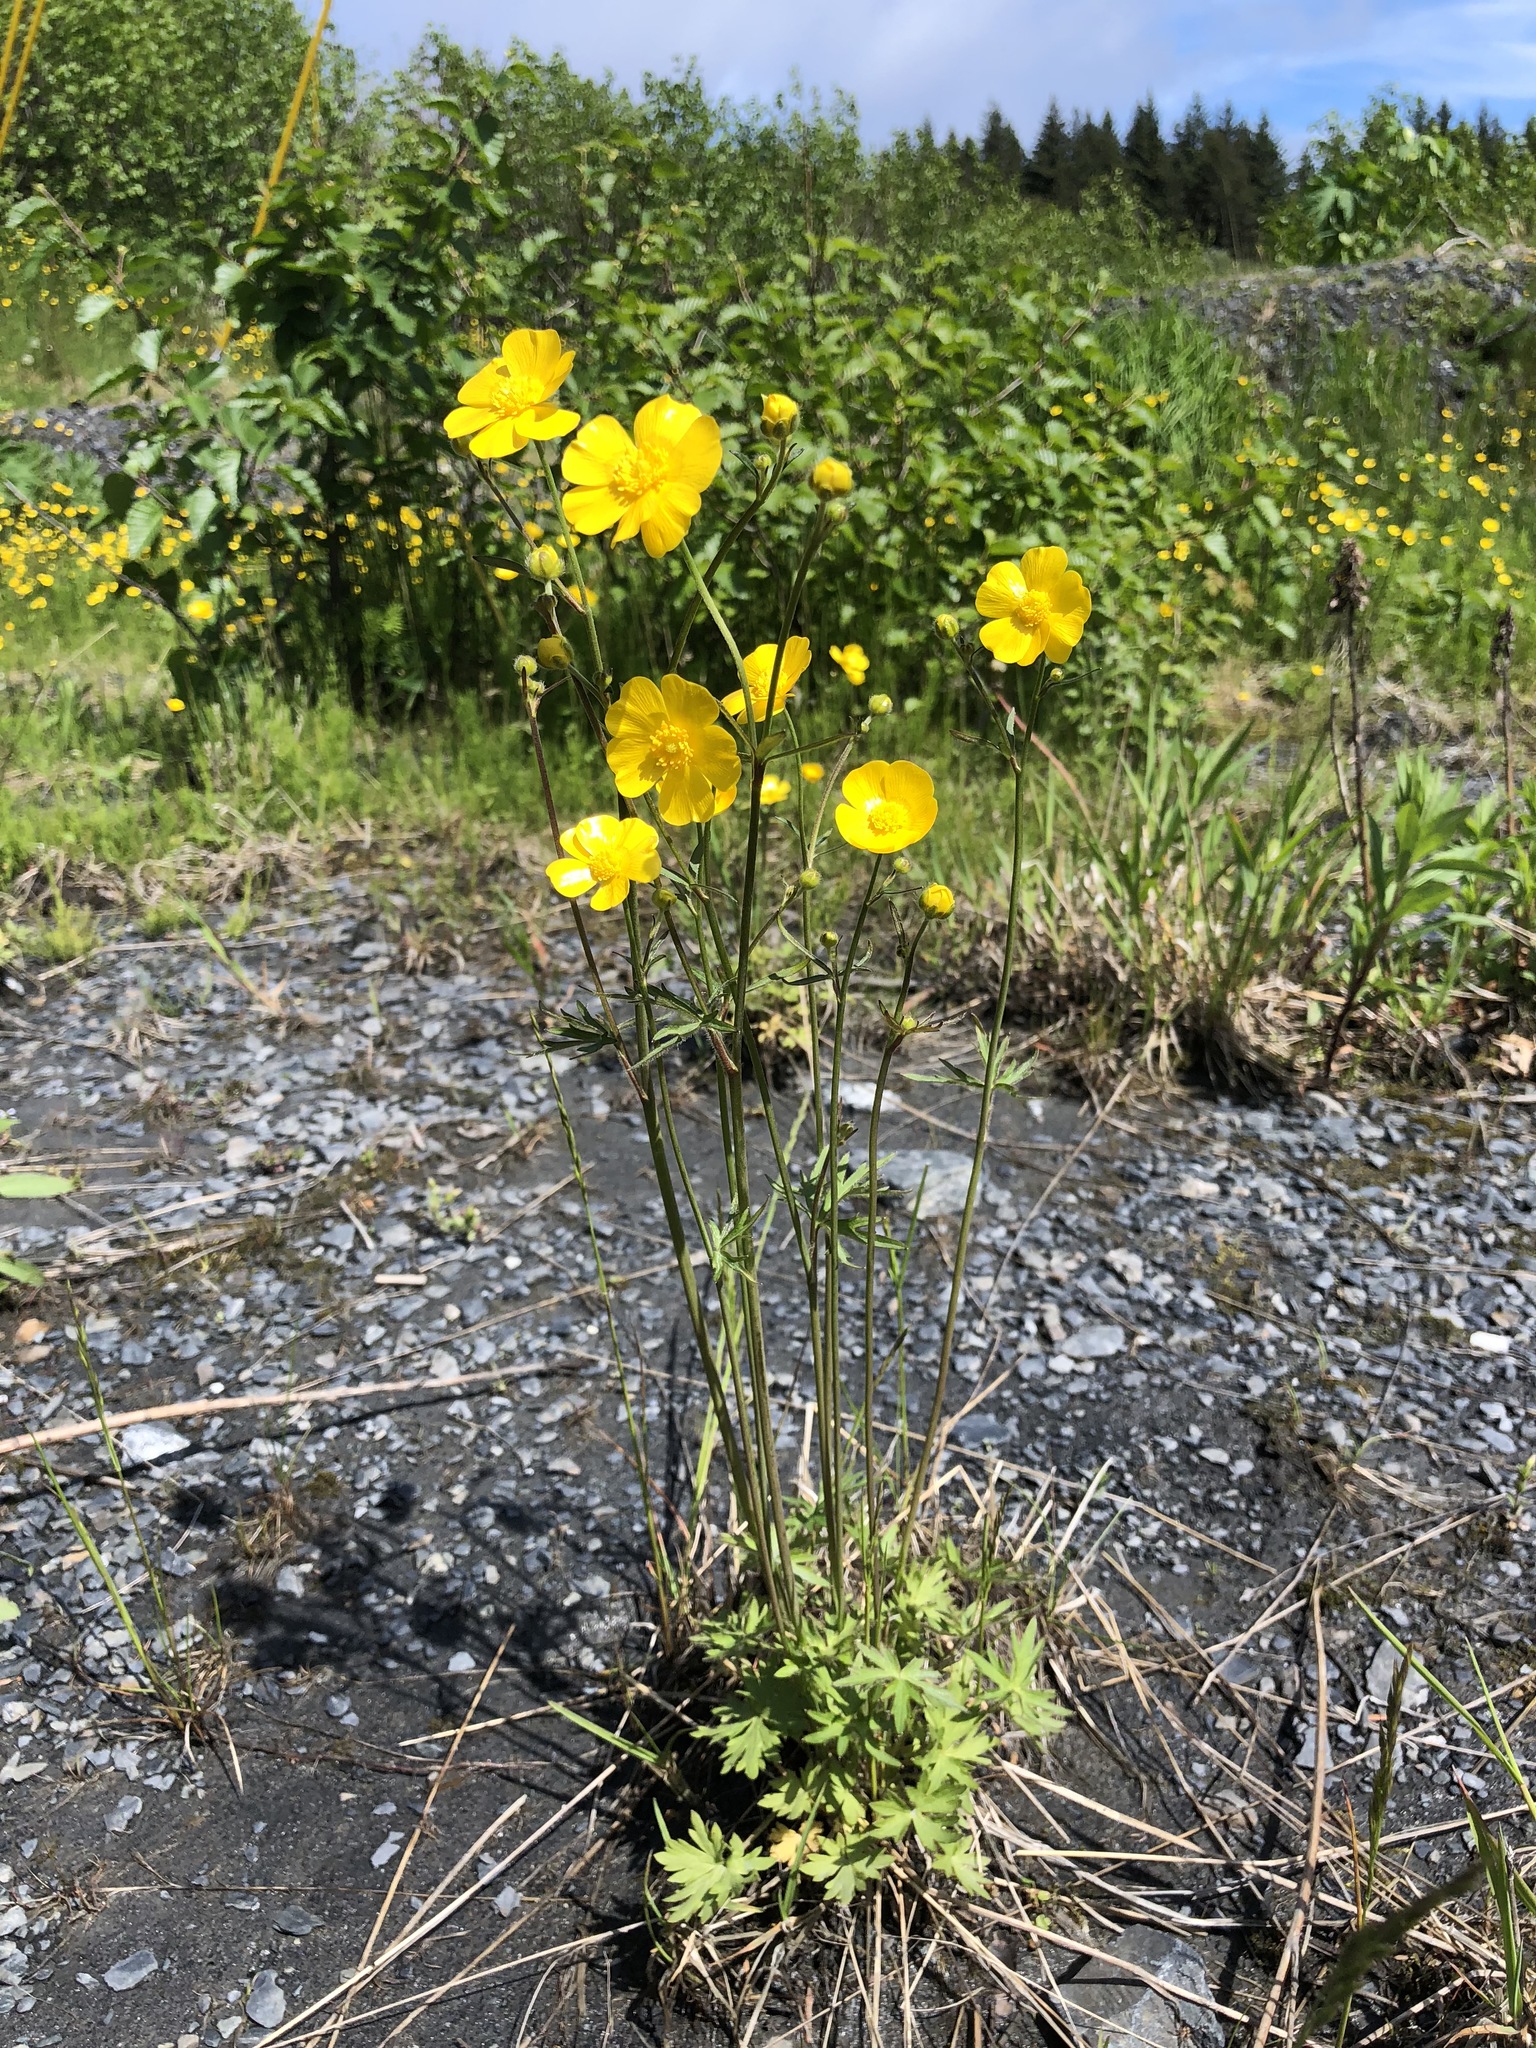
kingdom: Plantae
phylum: Tracheophyta
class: Magnoliopsida
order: Ranunculales
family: Ranunculaceae
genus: Ranunculus
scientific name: Ranunculus acris
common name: Meadow buttercup
